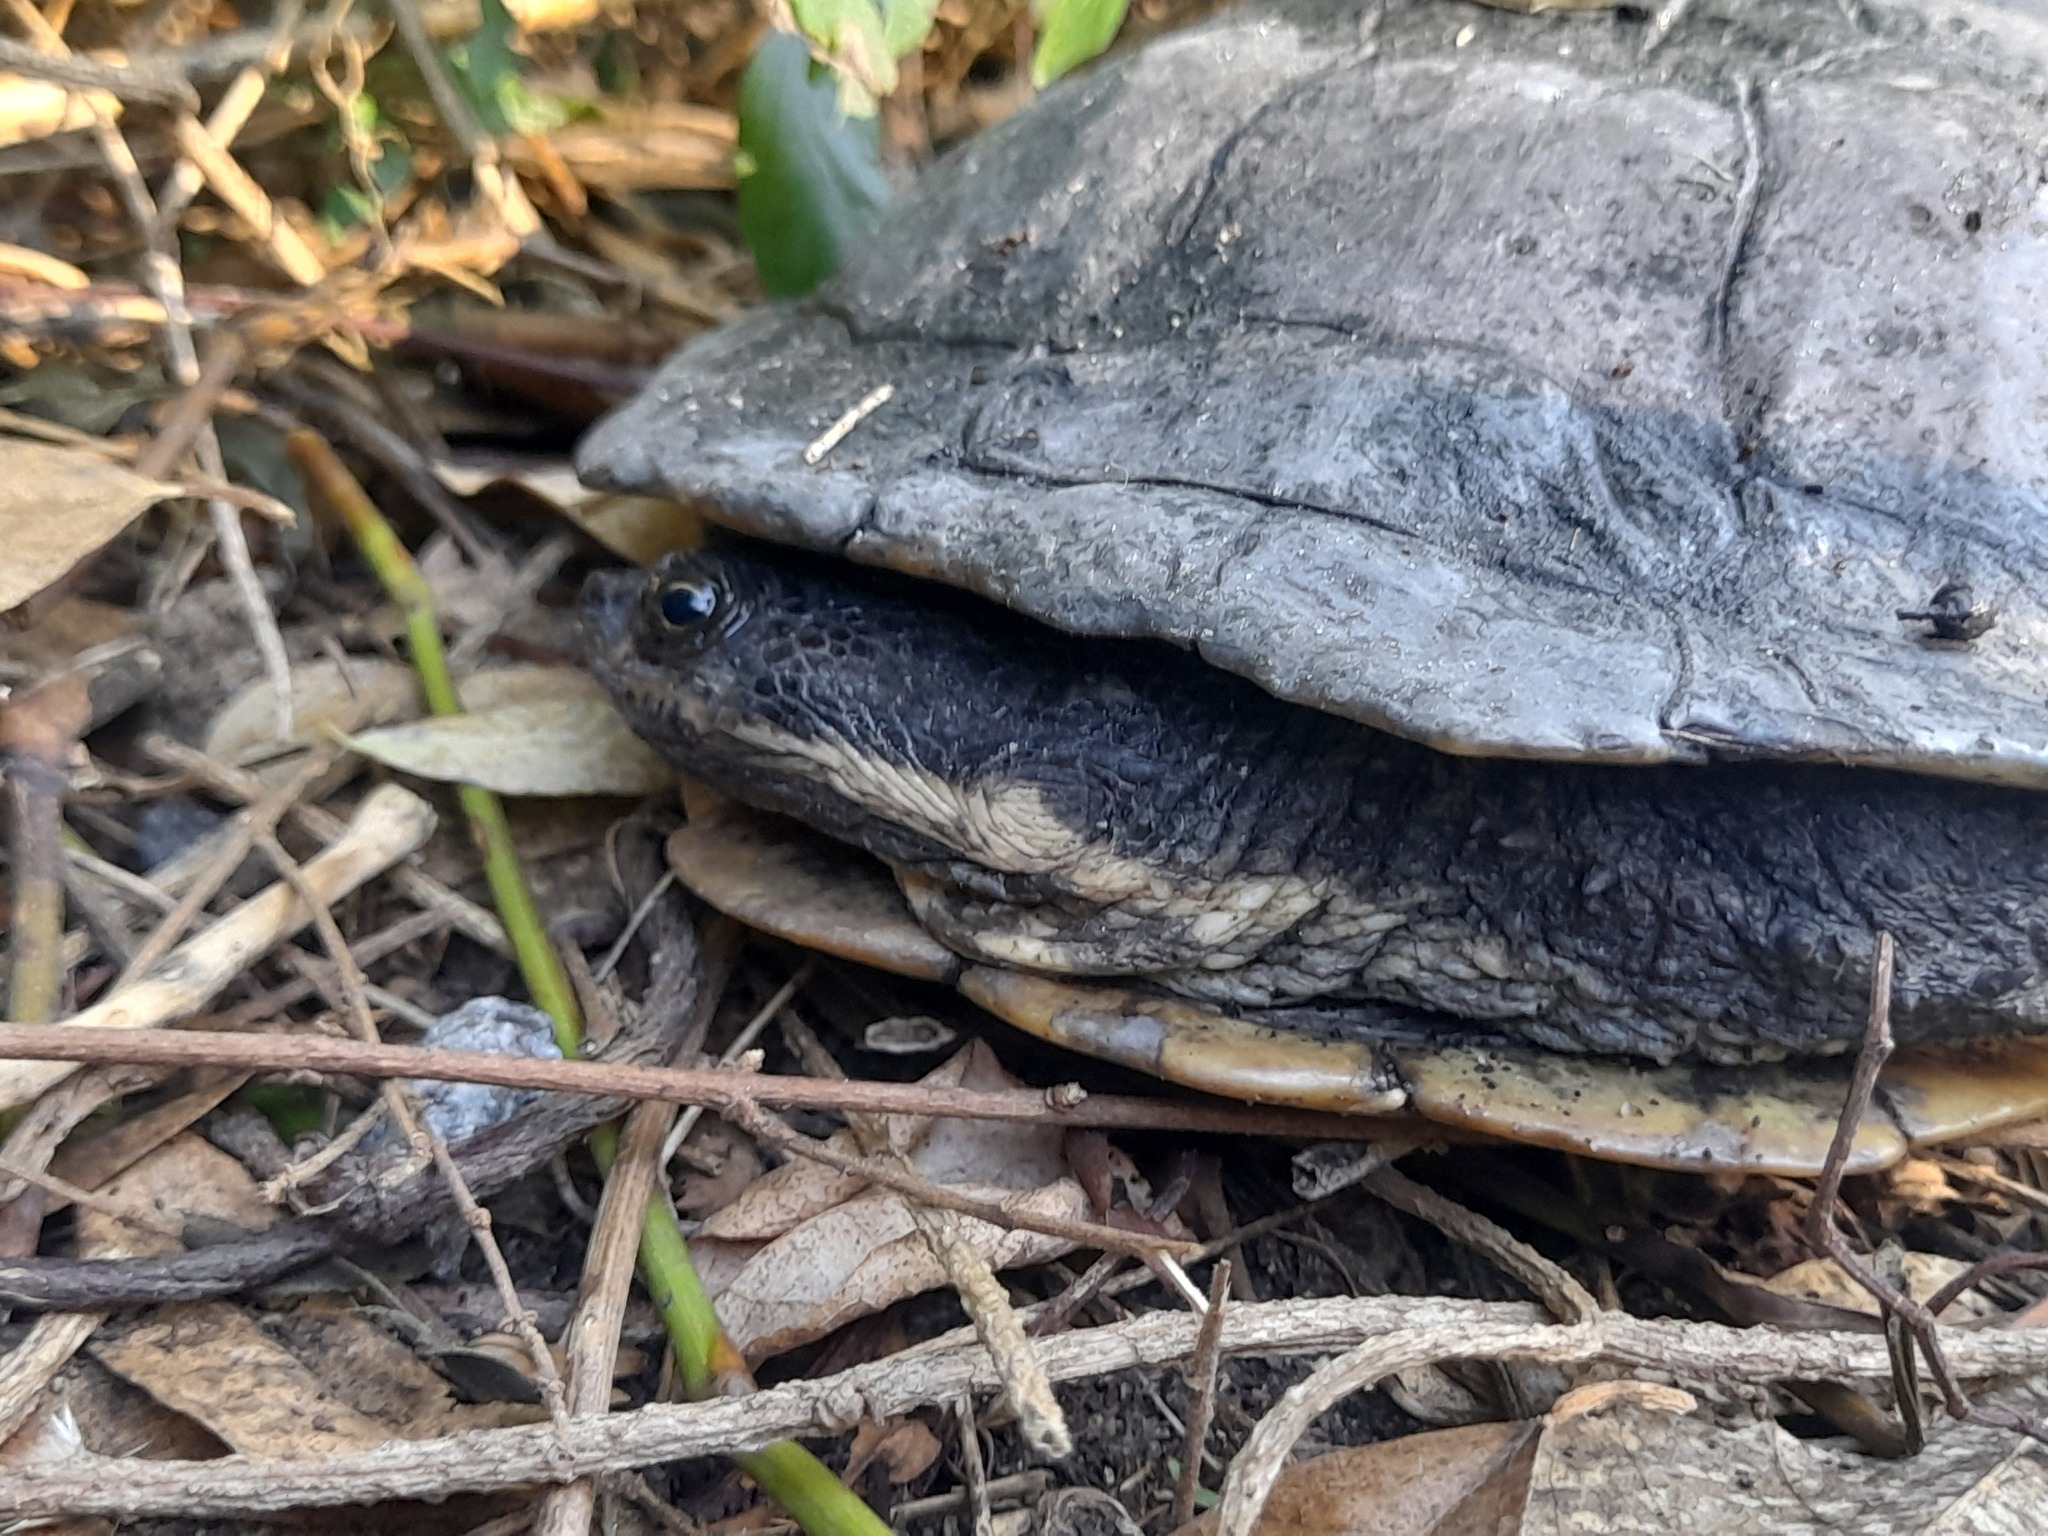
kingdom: Animalia
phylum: Chordata
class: Testudines
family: Chelidae
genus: Hydromedusa
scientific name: Hydromedusa tectifera
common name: Argentine snake-necked turtle
